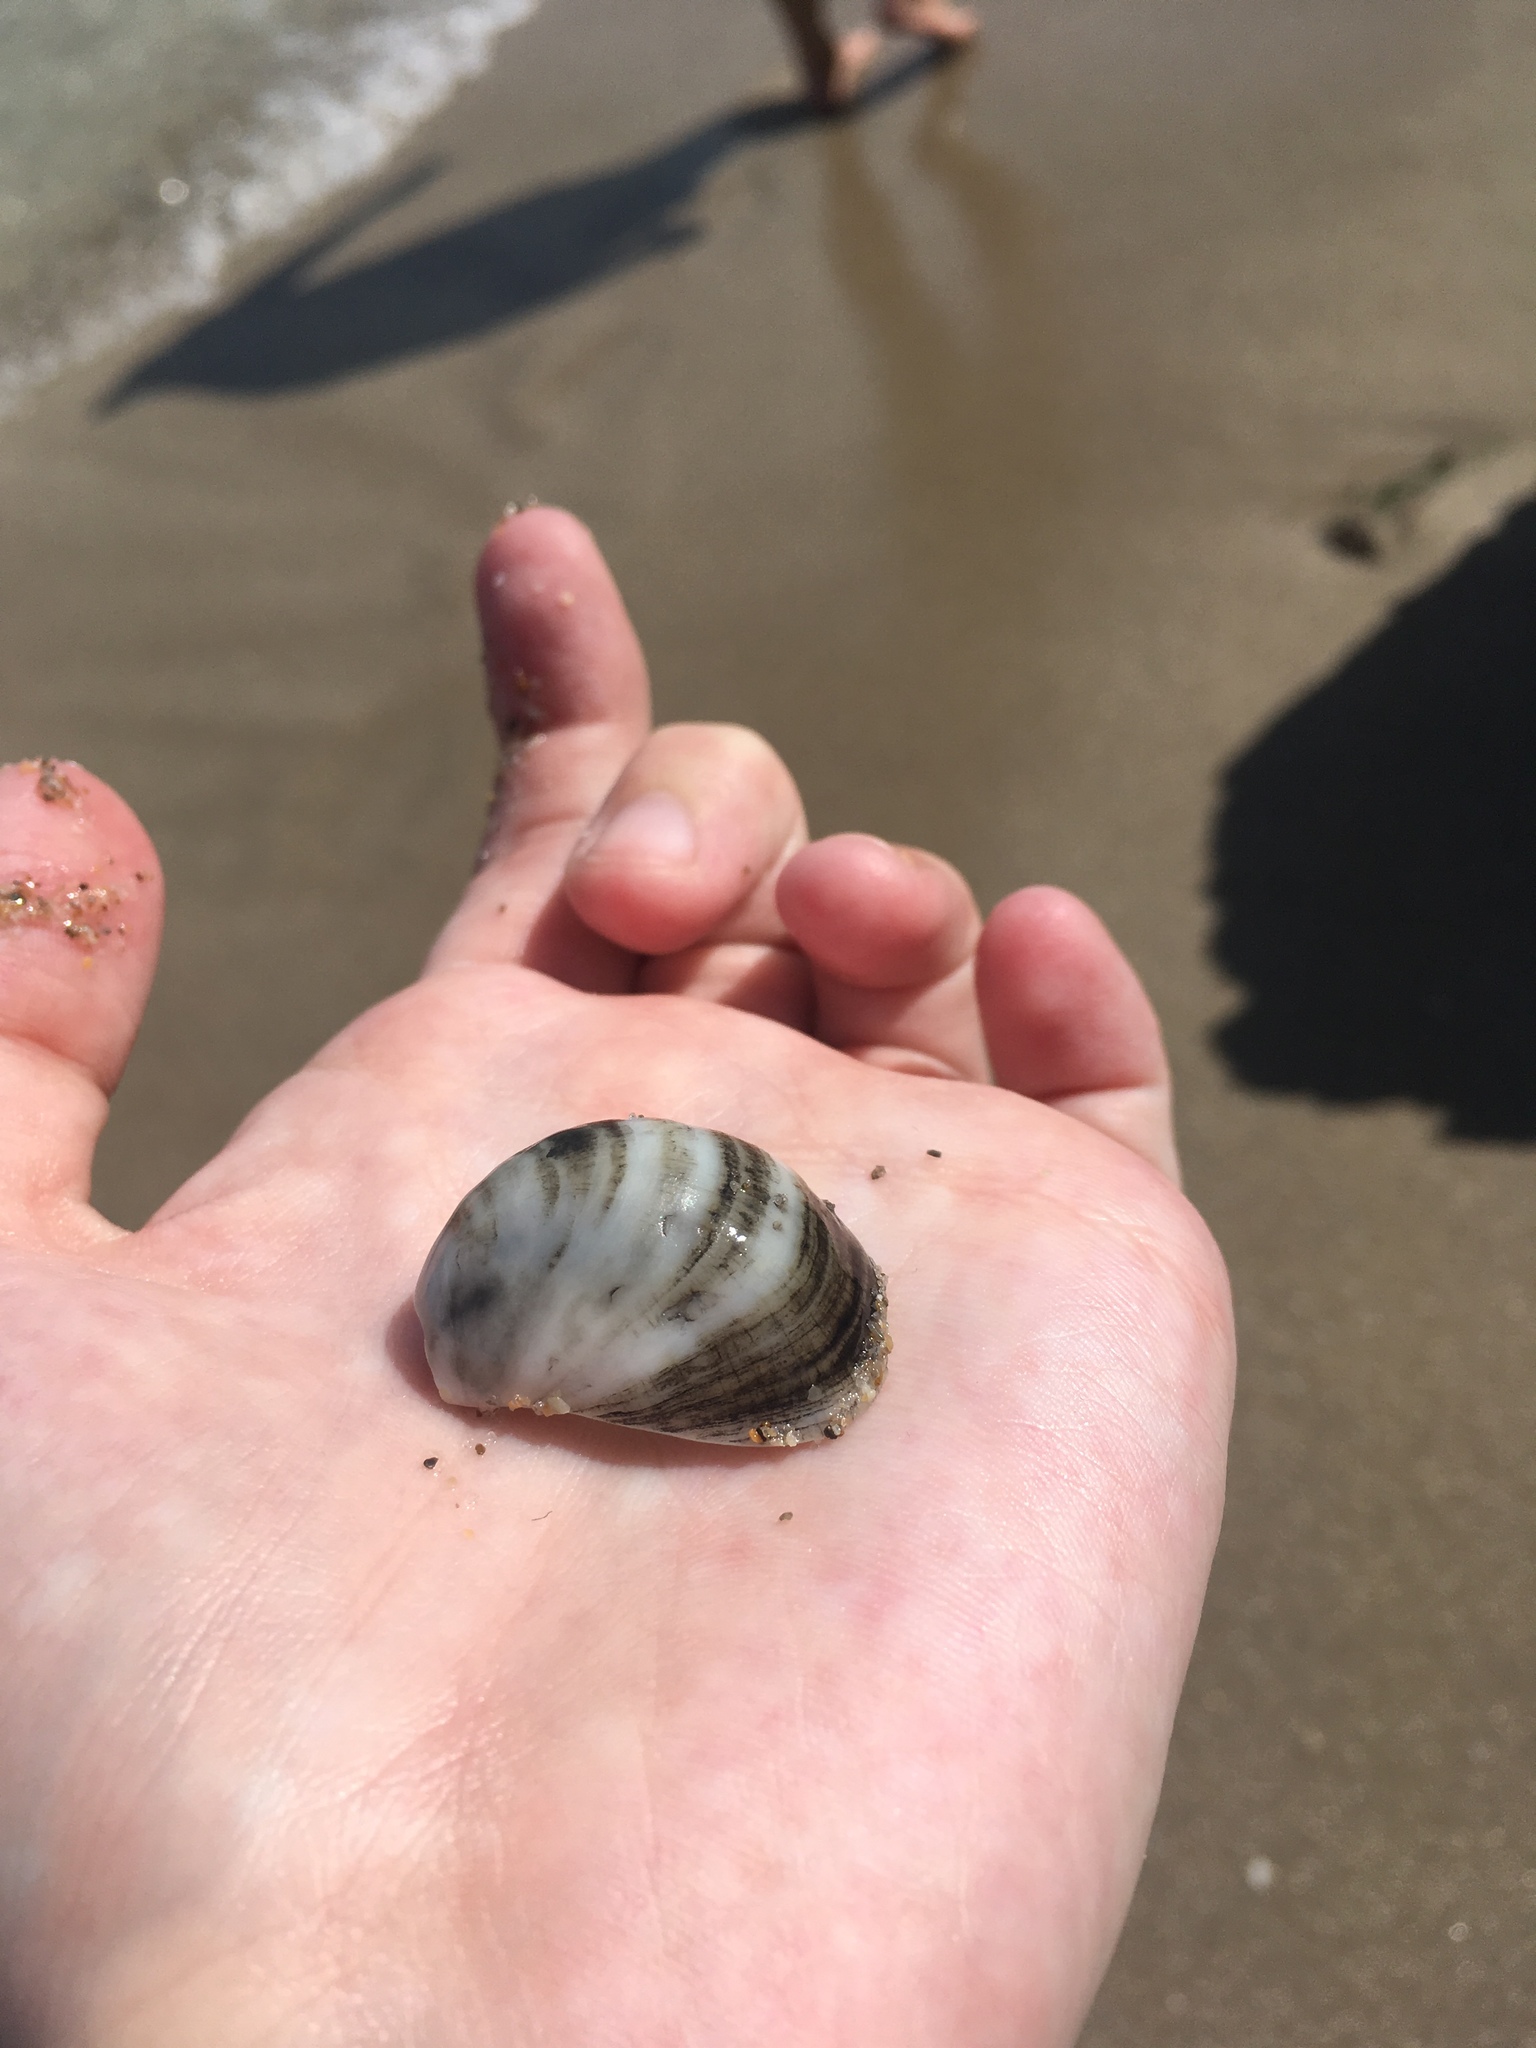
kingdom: Animalia
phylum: Mollusca
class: Gastropoda
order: Littorinimorpha
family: Calyptraeidae
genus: Crepidula
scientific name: Crepidula fornicata
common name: Slipper limpet
